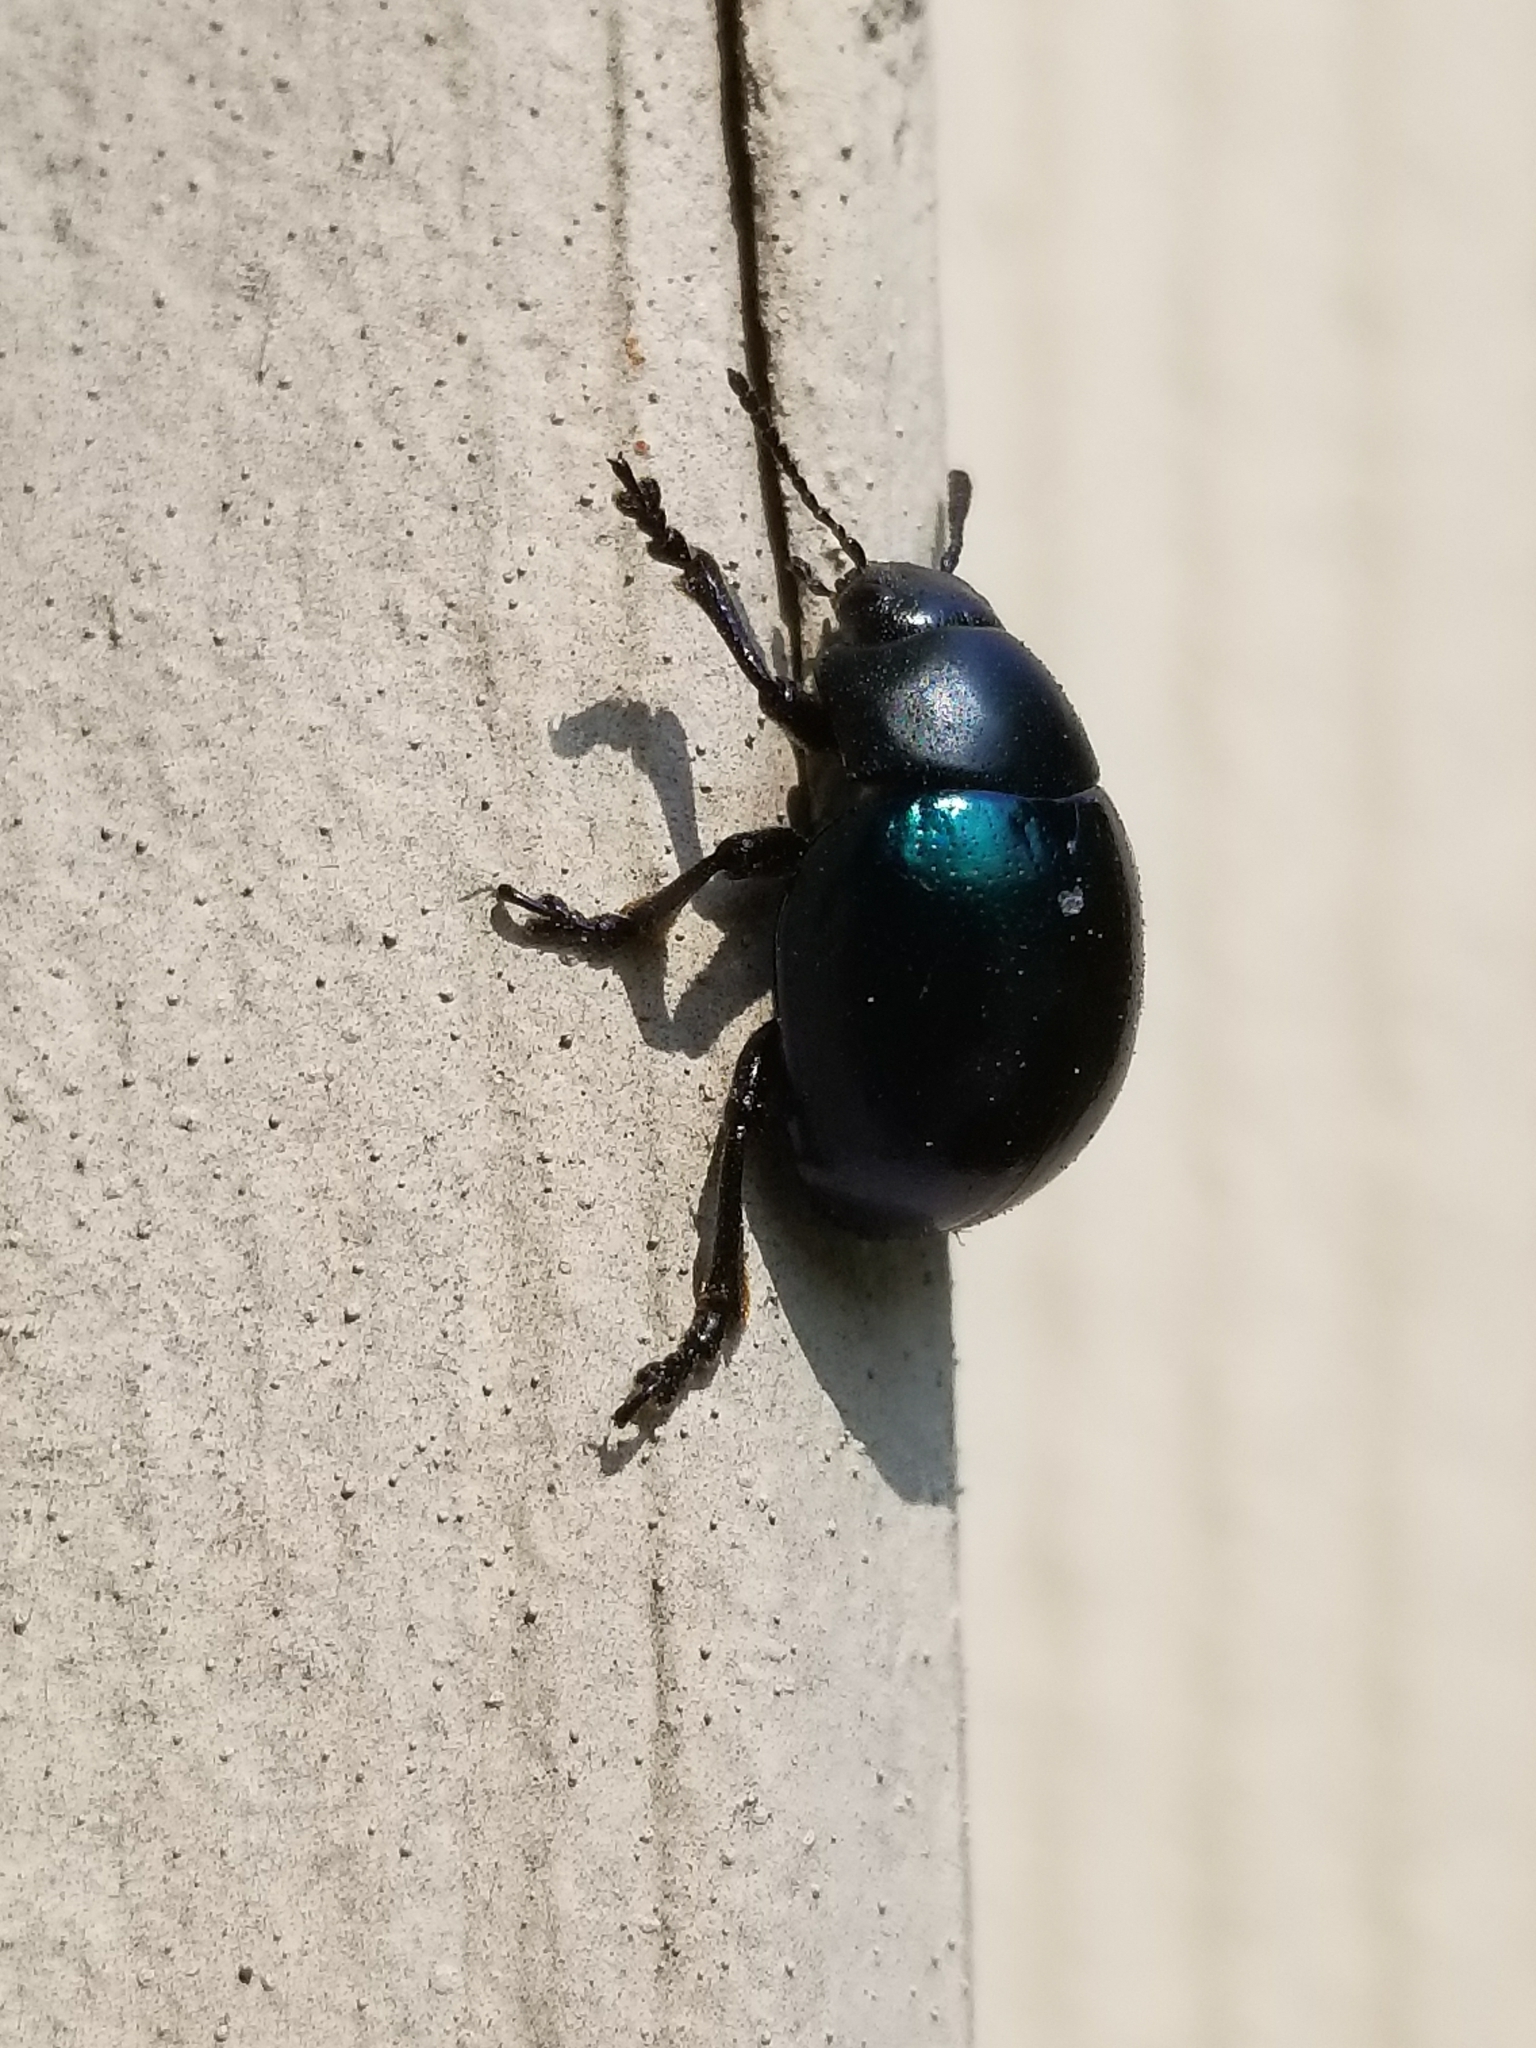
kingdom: Animalia
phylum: Arthropoda
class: Insecta
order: Coleoptera
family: Chrysomelidae
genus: Leptinotarsa
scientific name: Leptinotarsa haldemani
